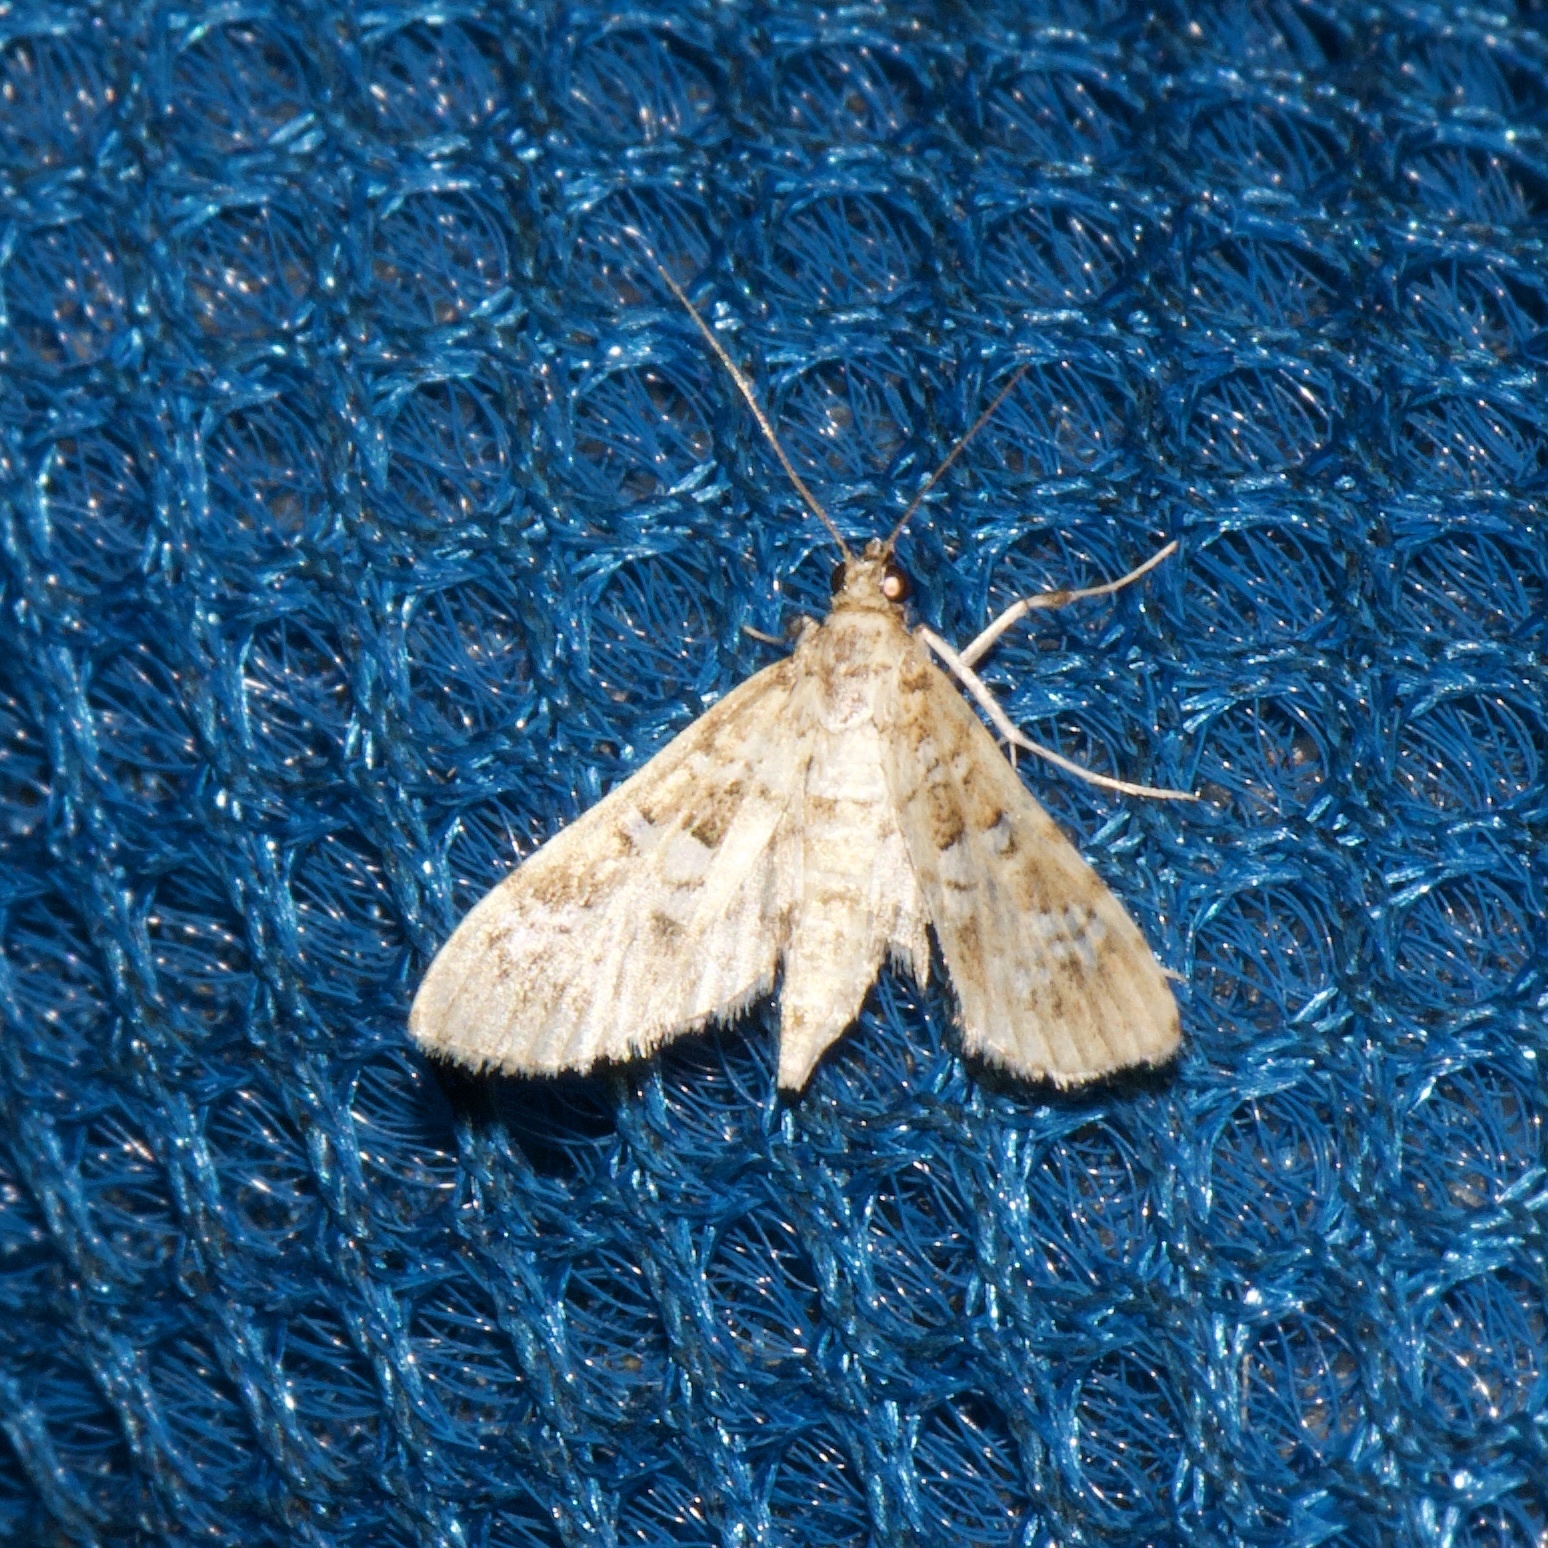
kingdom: Animalia
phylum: Arthropoda
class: Insecta
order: Lepidoptera
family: Crambidae
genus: Samea
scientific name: Samea multiplicalis
